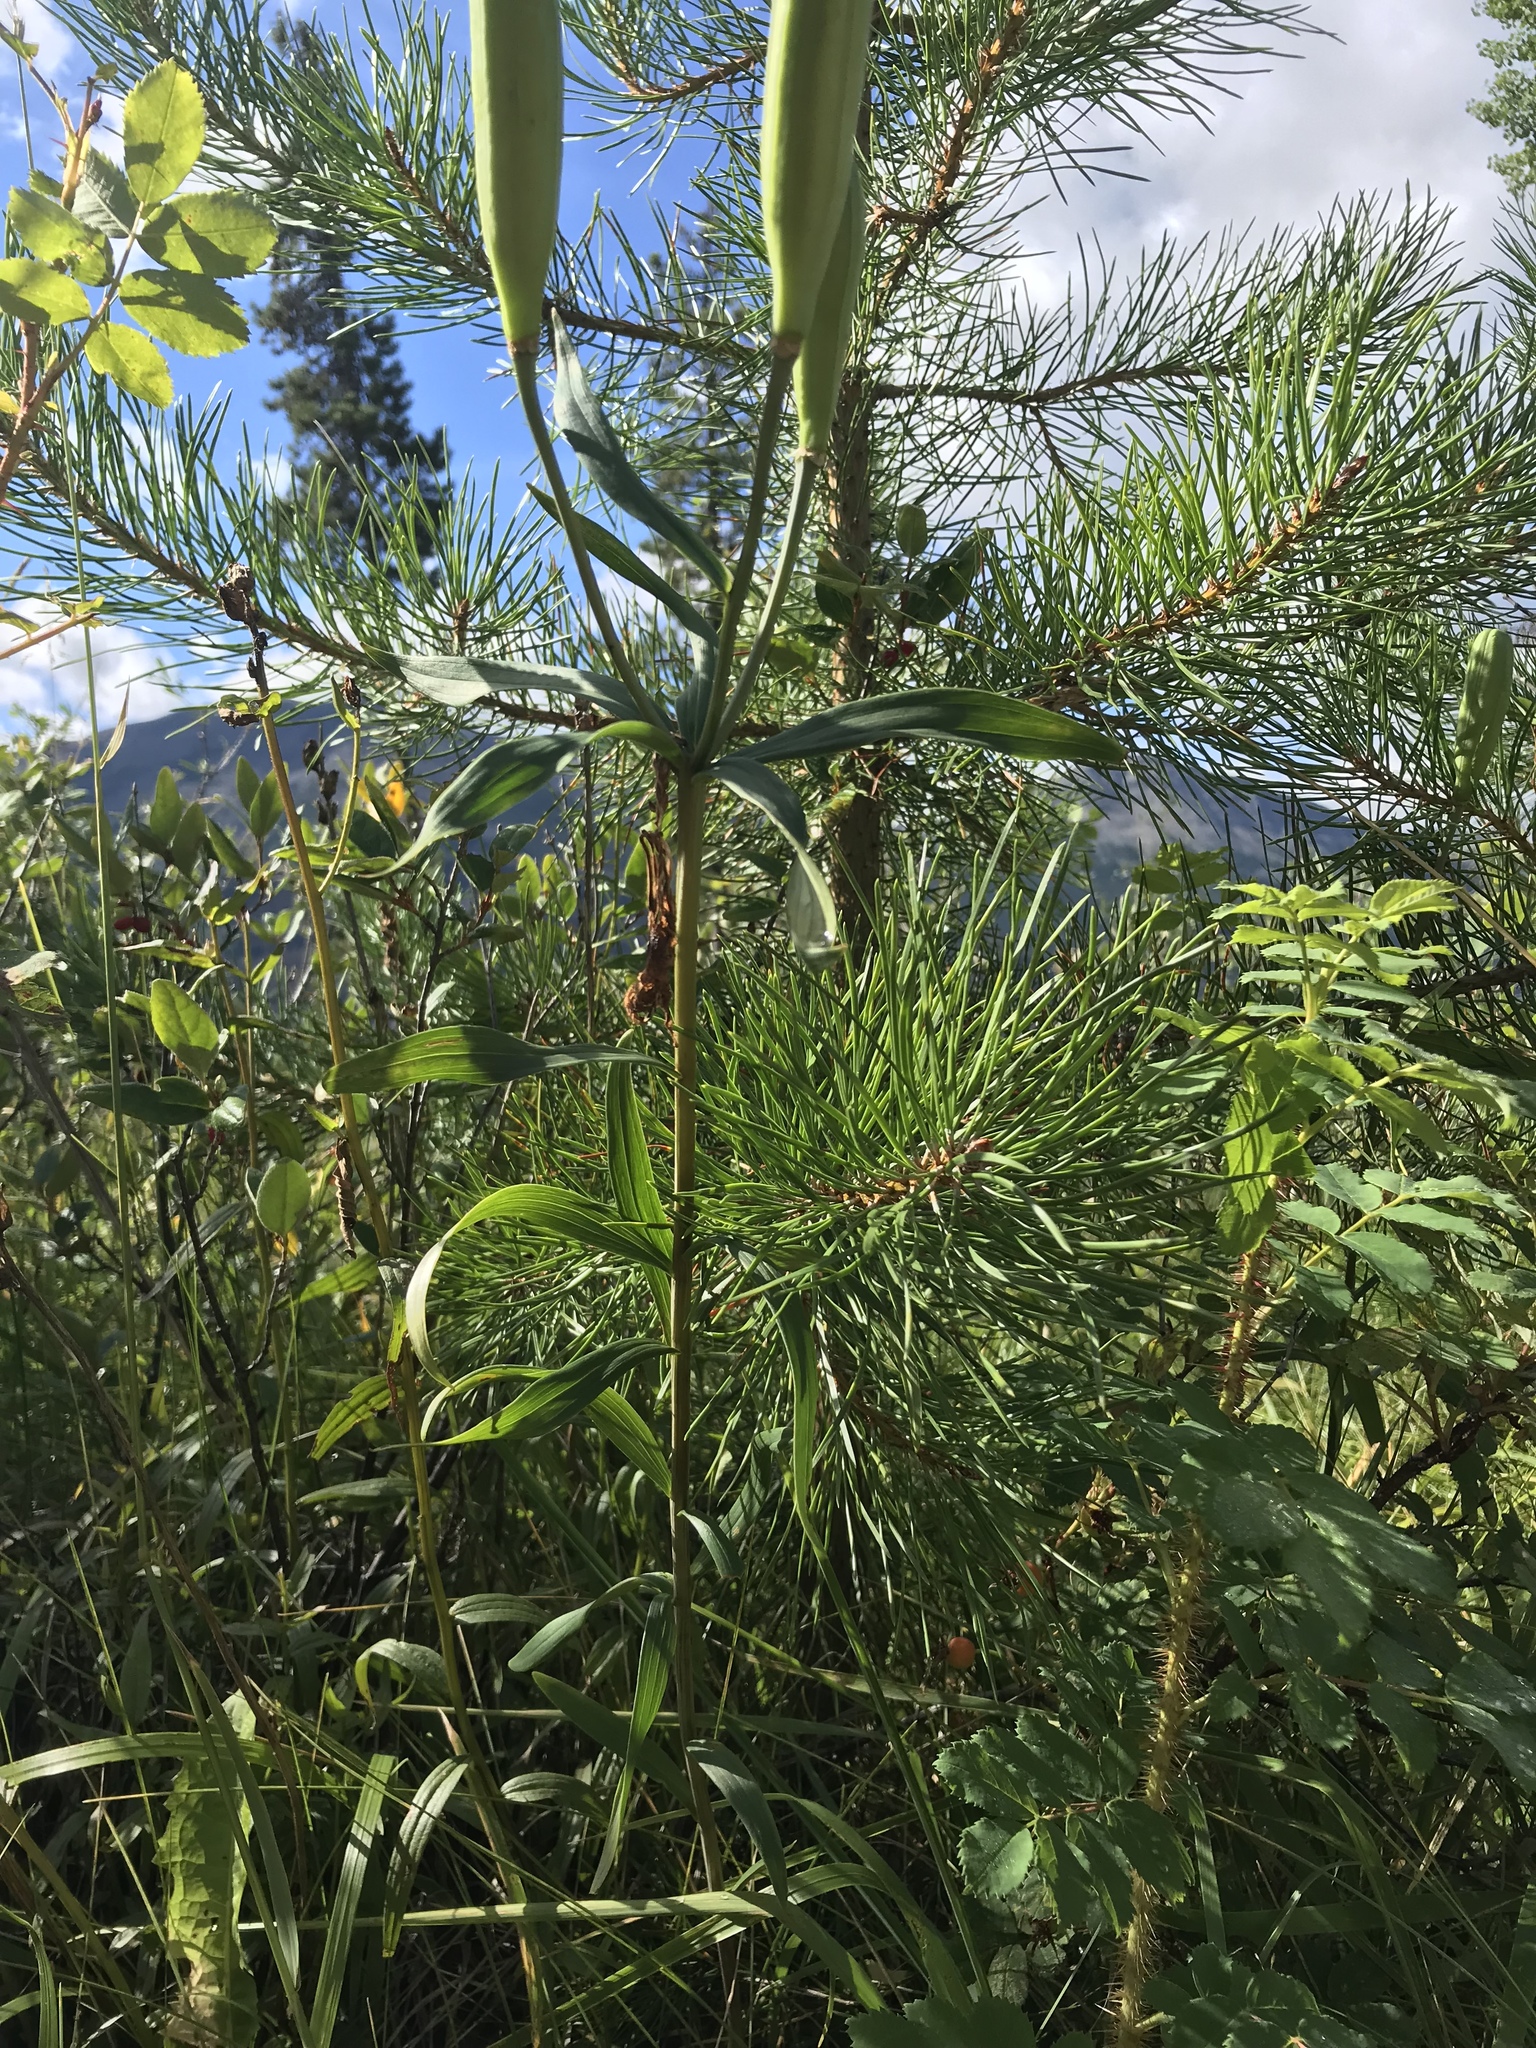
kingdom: Plantae
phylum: Tracheophyta
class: Liliopsida
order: Liliales
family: Liliaceae
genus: Lilium
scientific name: Lilium philadelphicum
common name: Red lily
